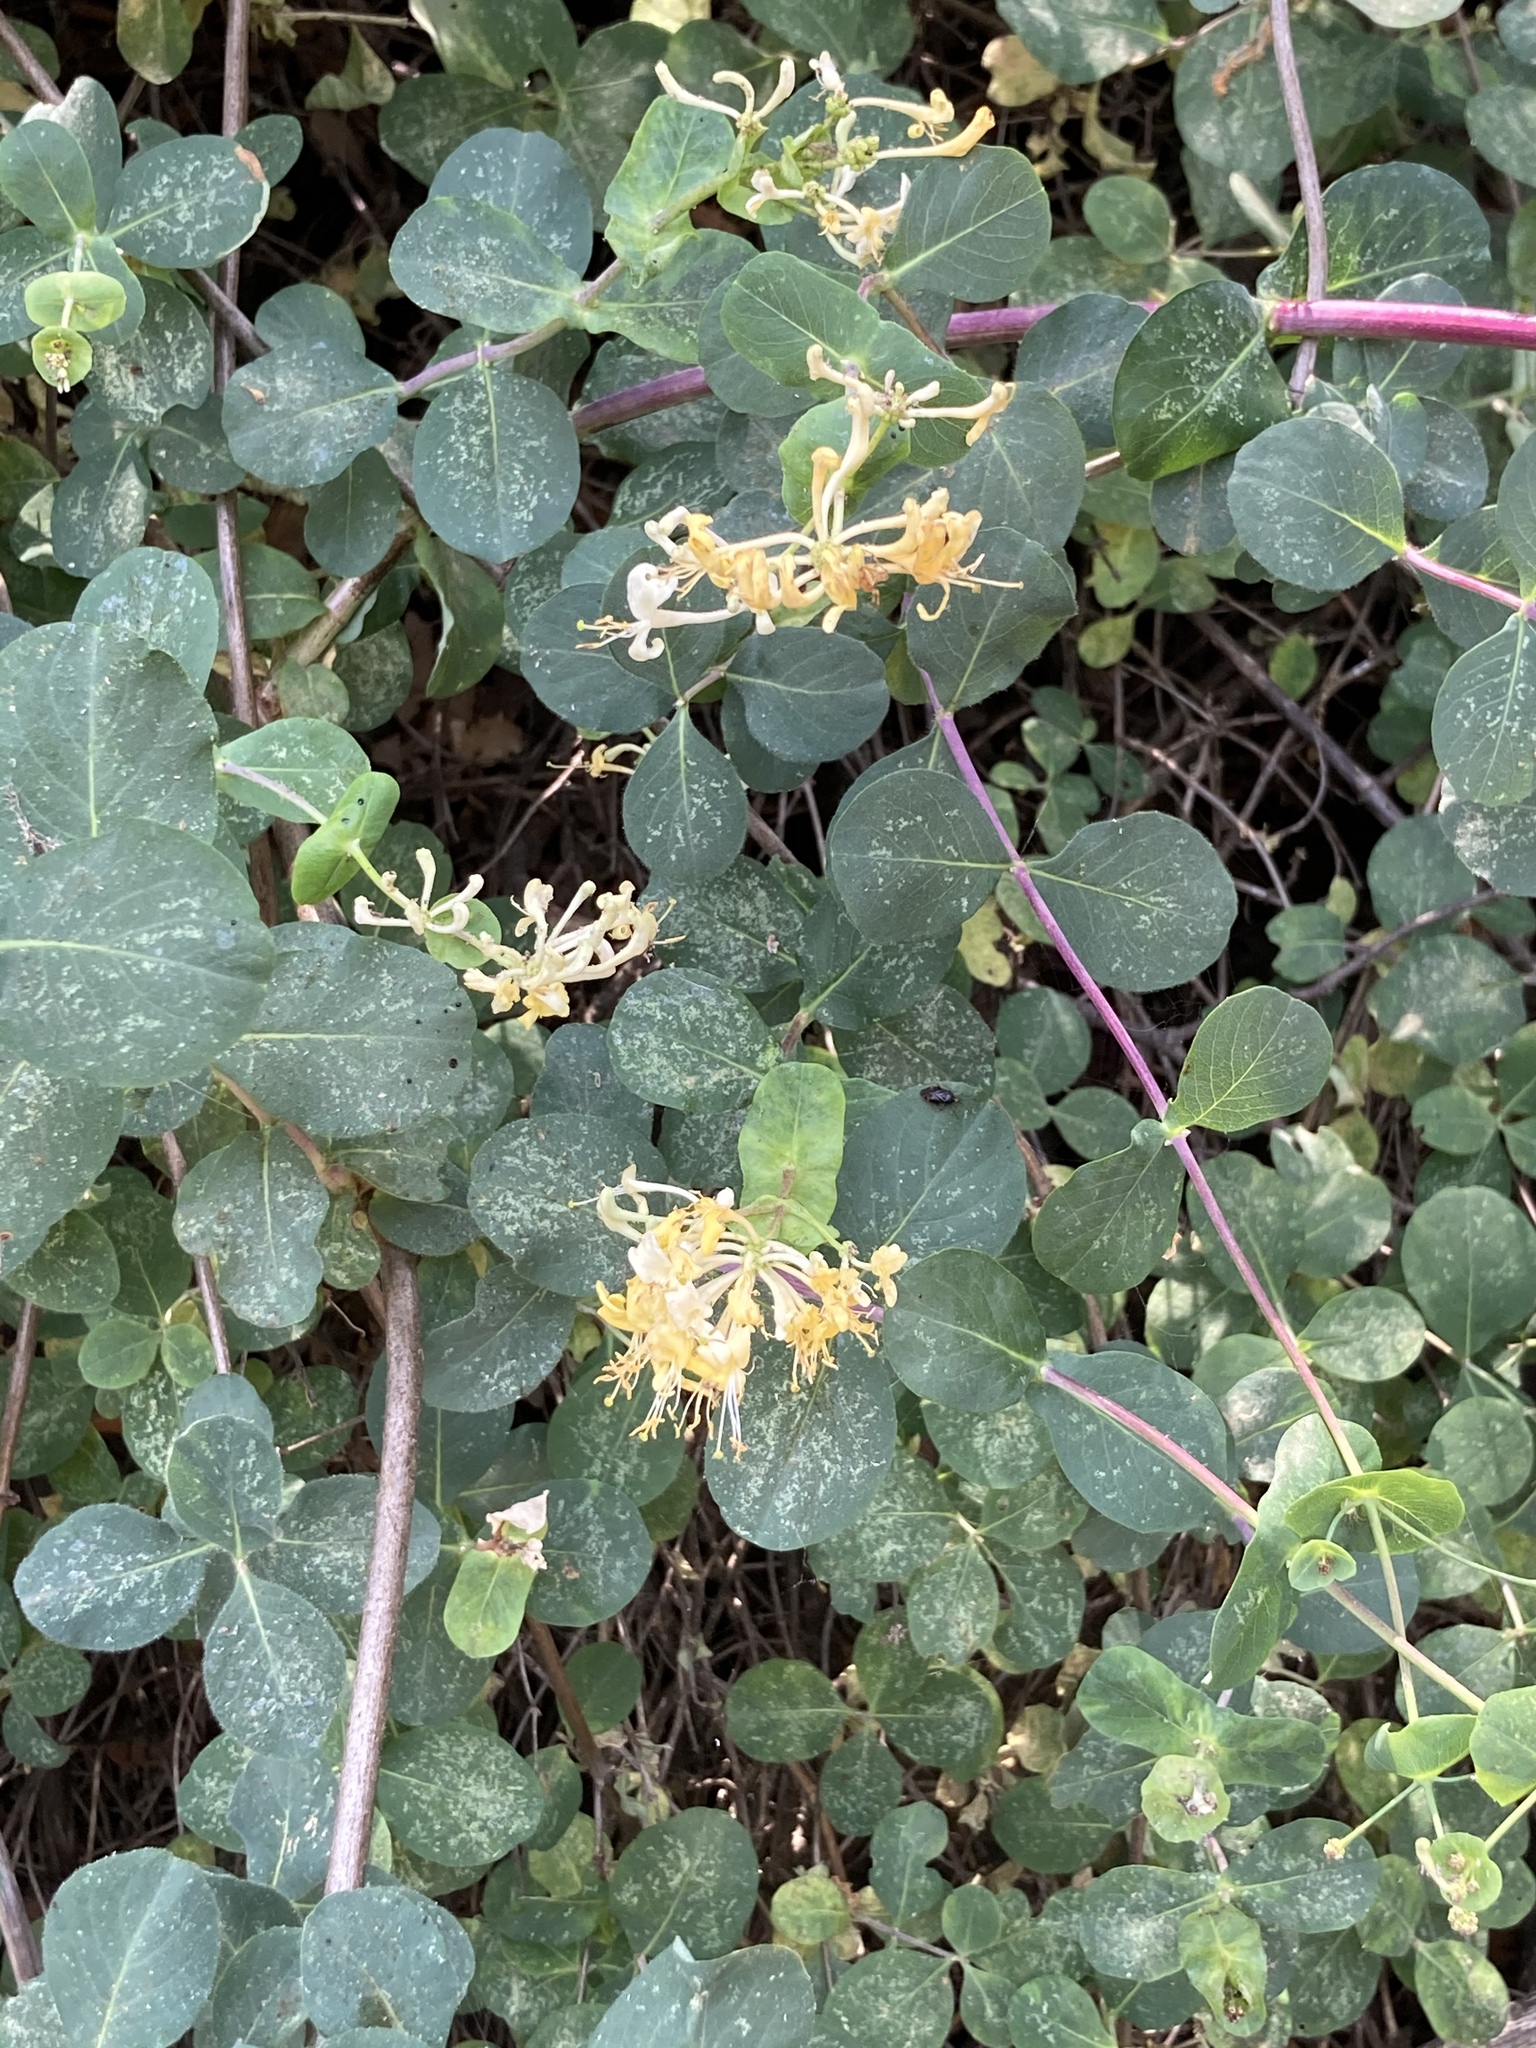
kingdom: Plantae
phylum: Tracheophyta
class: Magnoliopsida
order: Dipsacales
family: Caprifoliaceae
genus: Lonicera
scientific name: Lonicera etrusca
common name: Etruscan honeysuckle
